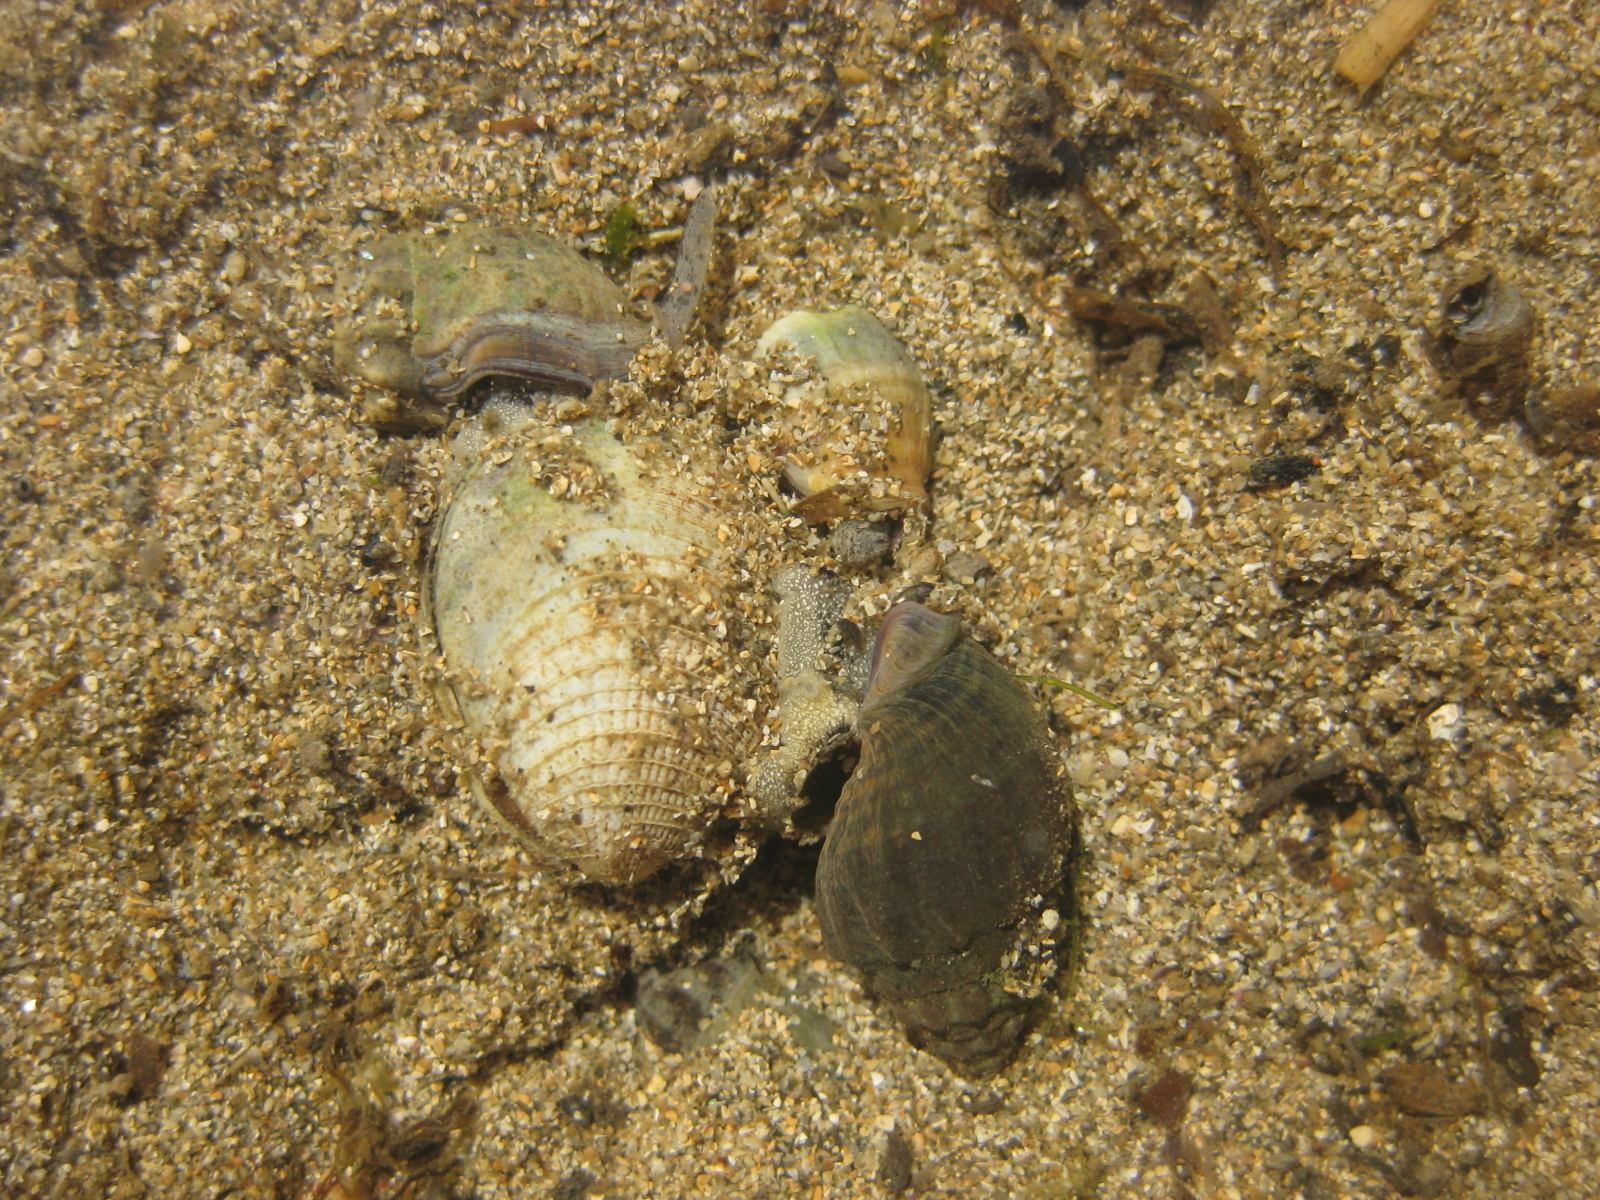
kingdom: Animalia
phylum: Mollusca
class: Gastropoda
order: Neogastropoda
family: Cominellidae
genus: Cominella
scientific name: Cominella glandiformis
